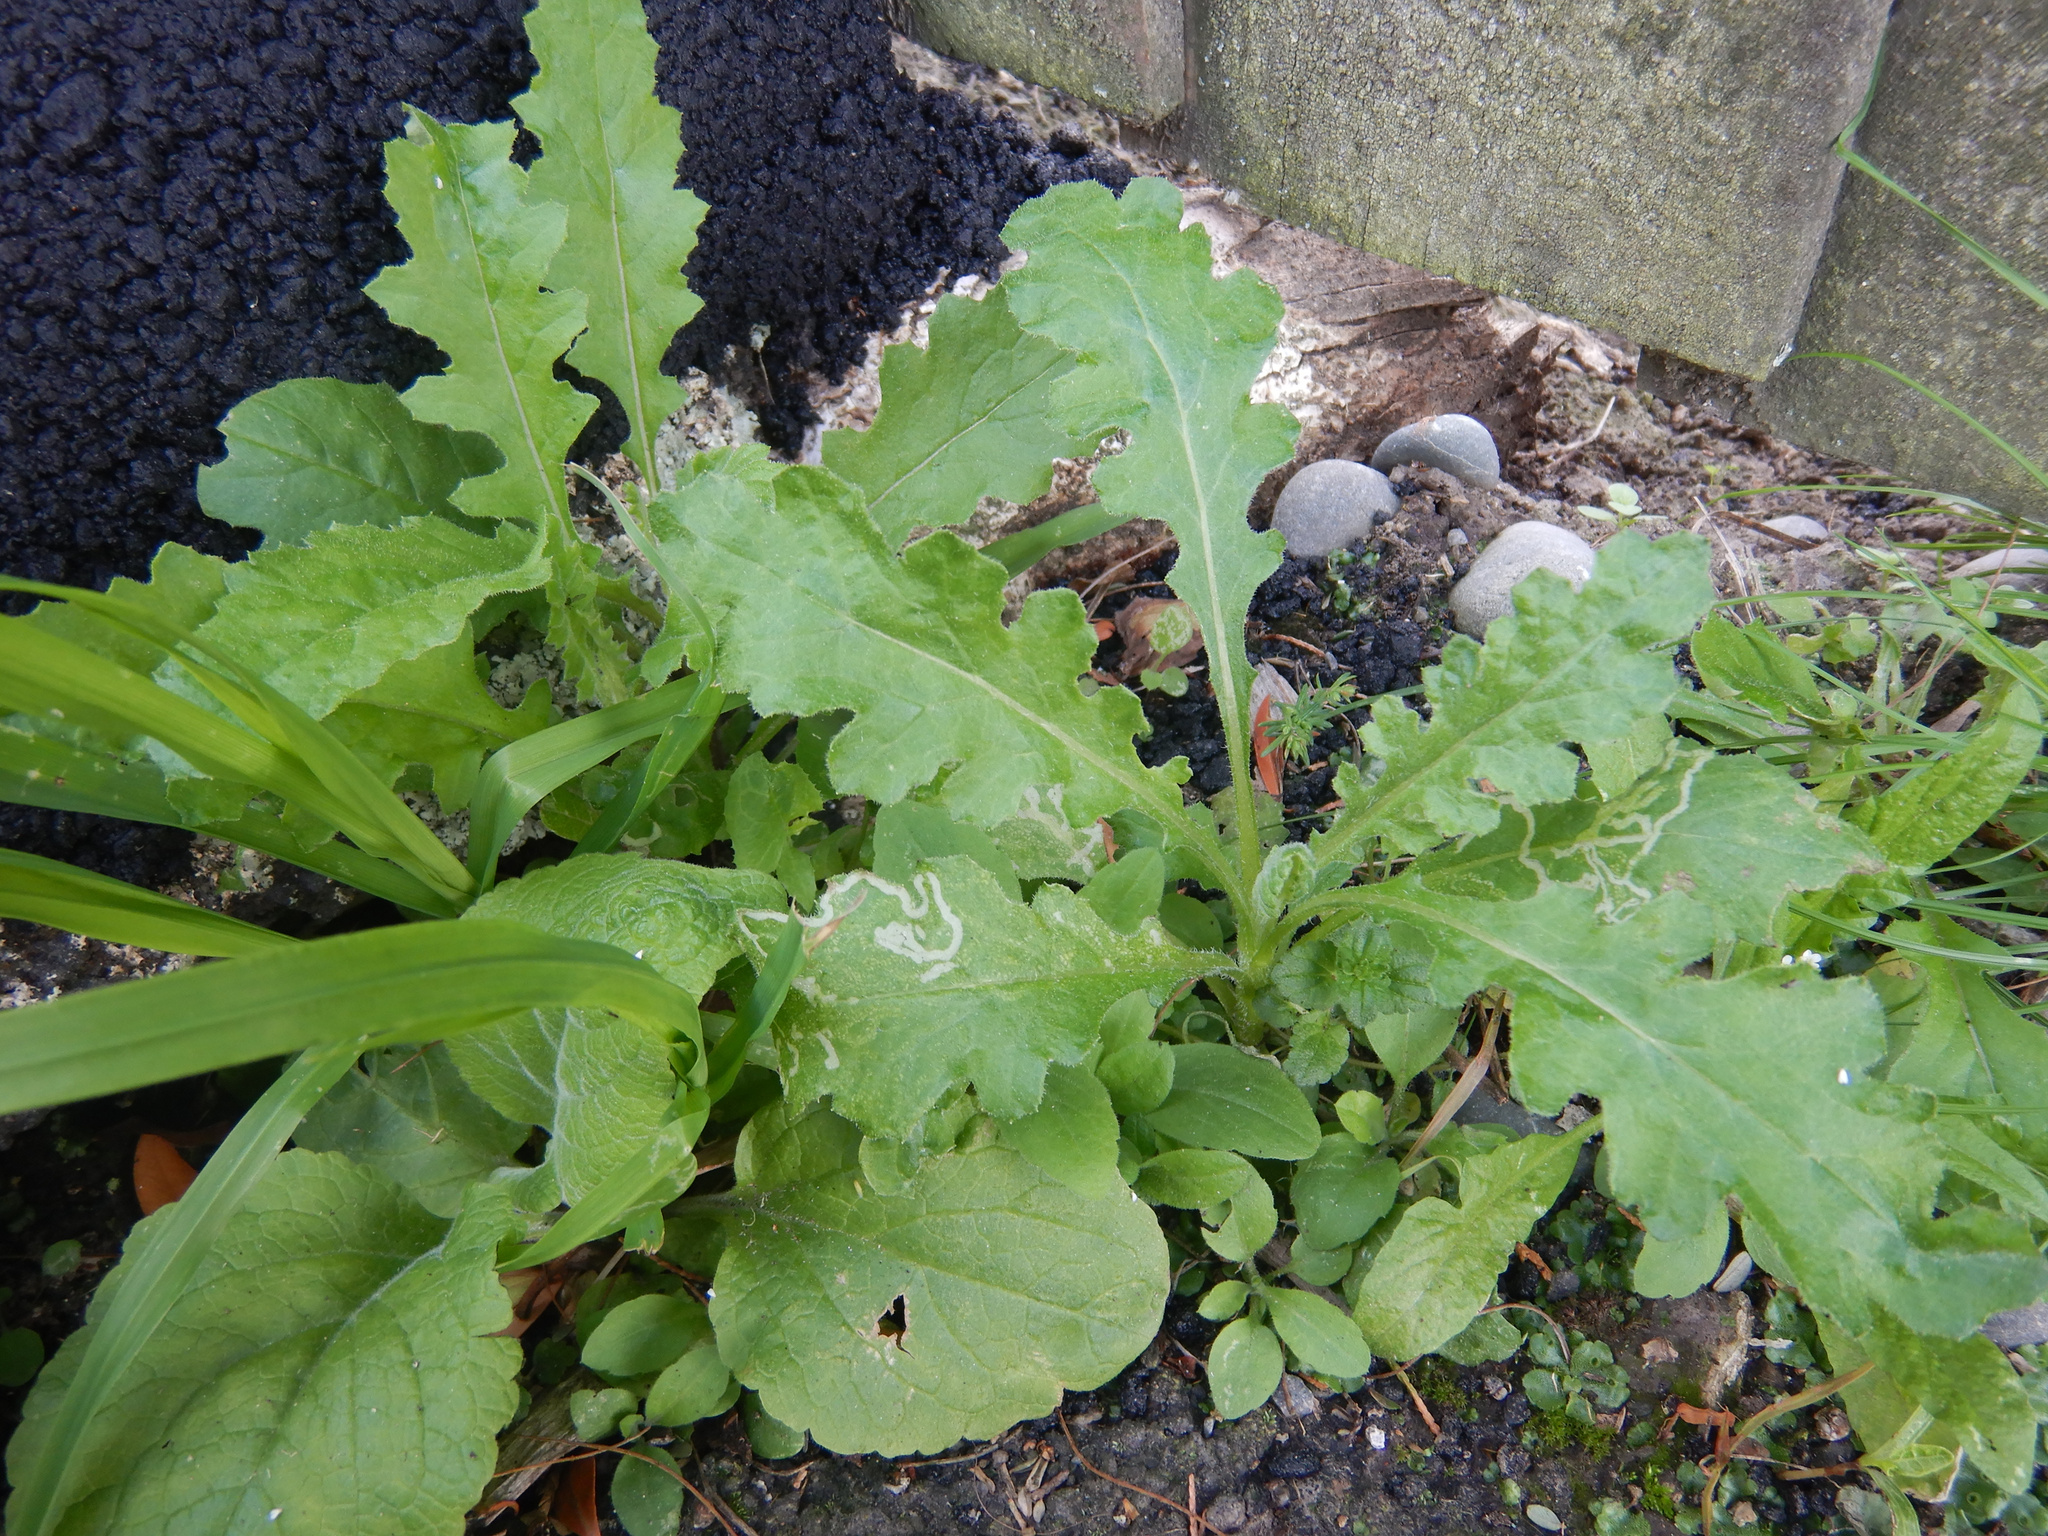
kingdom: Plantae
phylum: Tracheophyta
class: Magnoliopsida
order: Asterales
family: Asteraceae
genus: Senecio
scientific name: Senecio glomeratus
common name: Cutleaf burnweed
